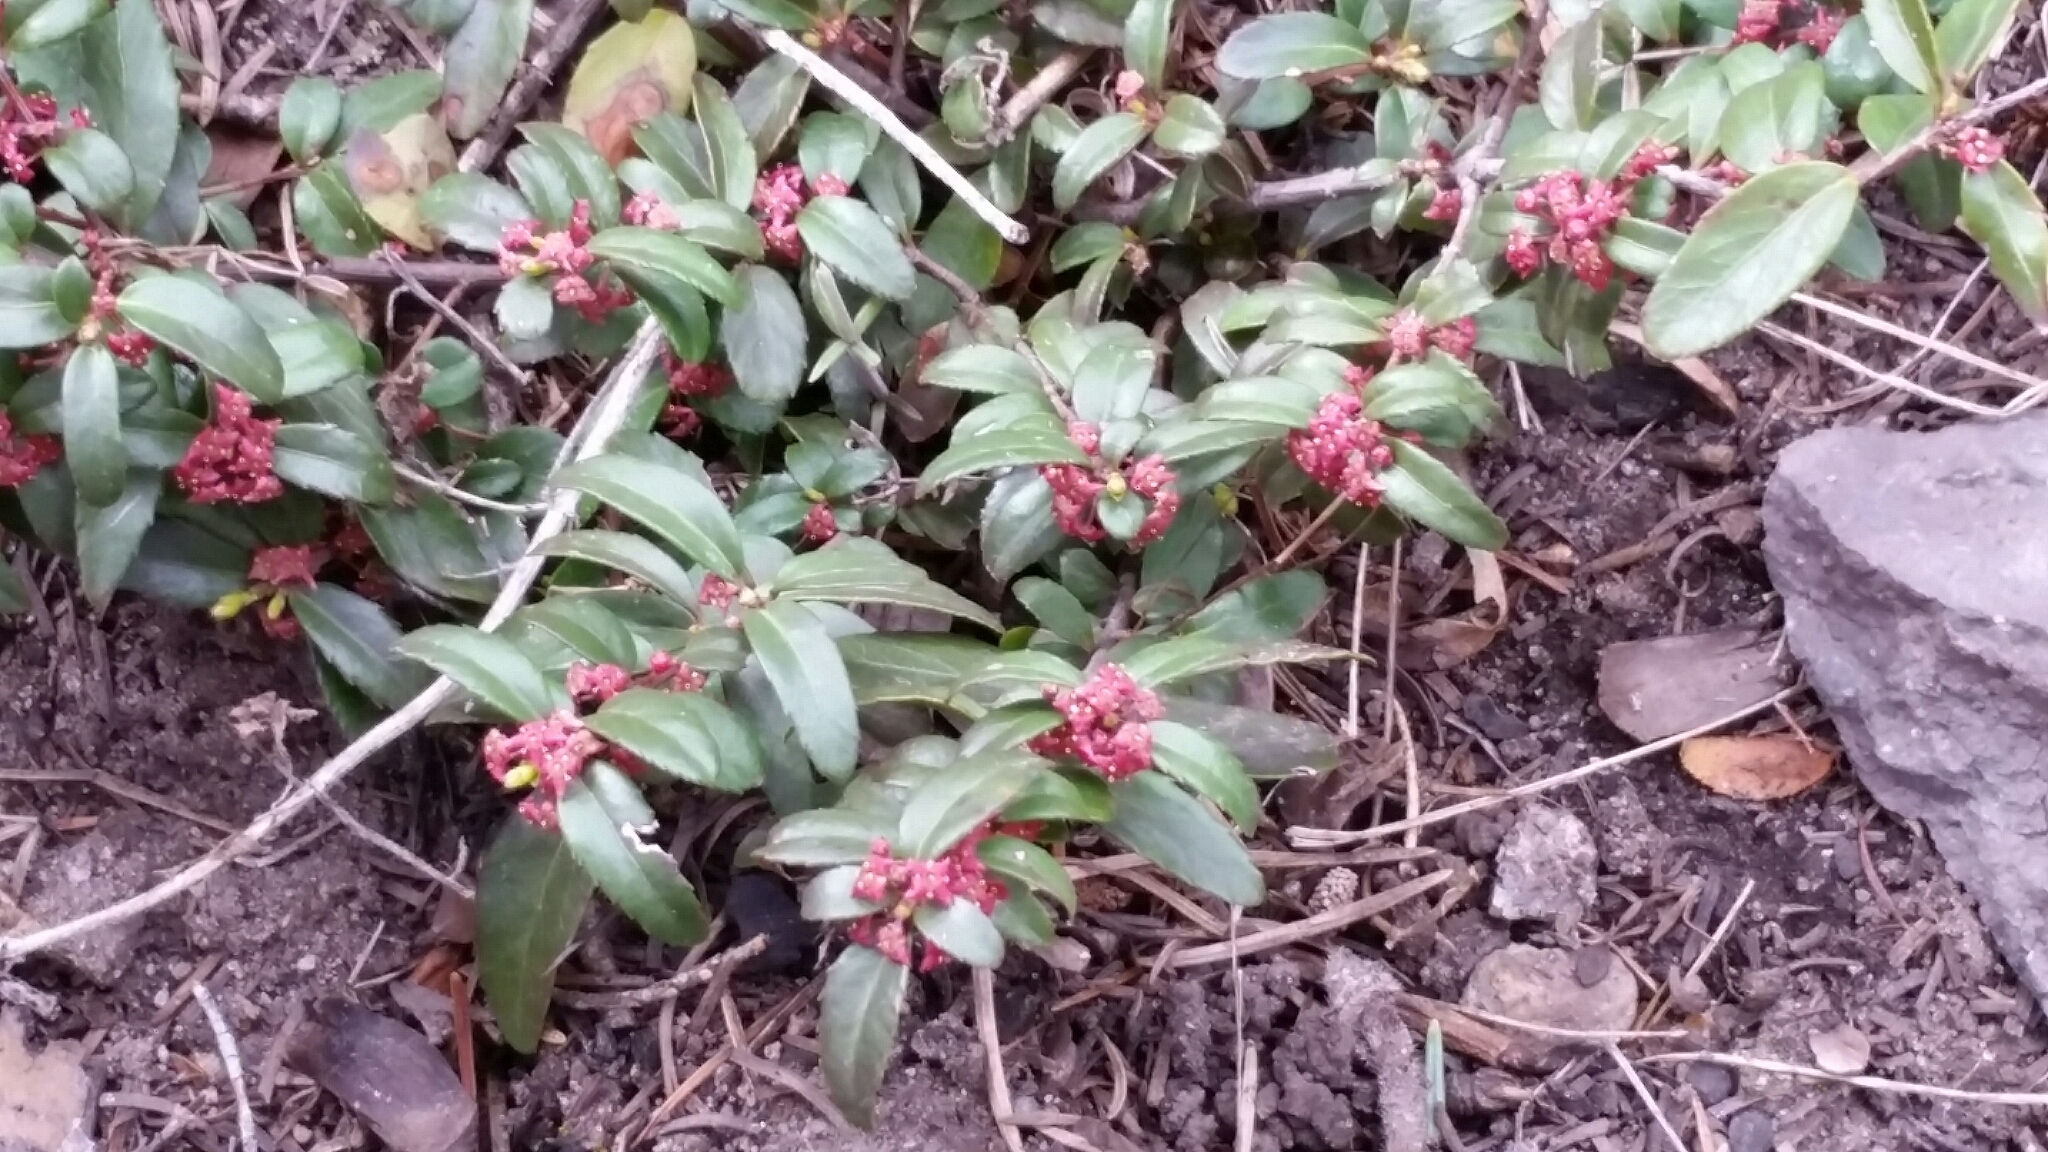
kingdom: Plantae
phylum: Tracheophyta
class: Magnoliopsida
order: Celastrales
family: Celastraceae
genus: Paxistima
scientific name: Paxistima myrsinites
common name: Mountain-lover
